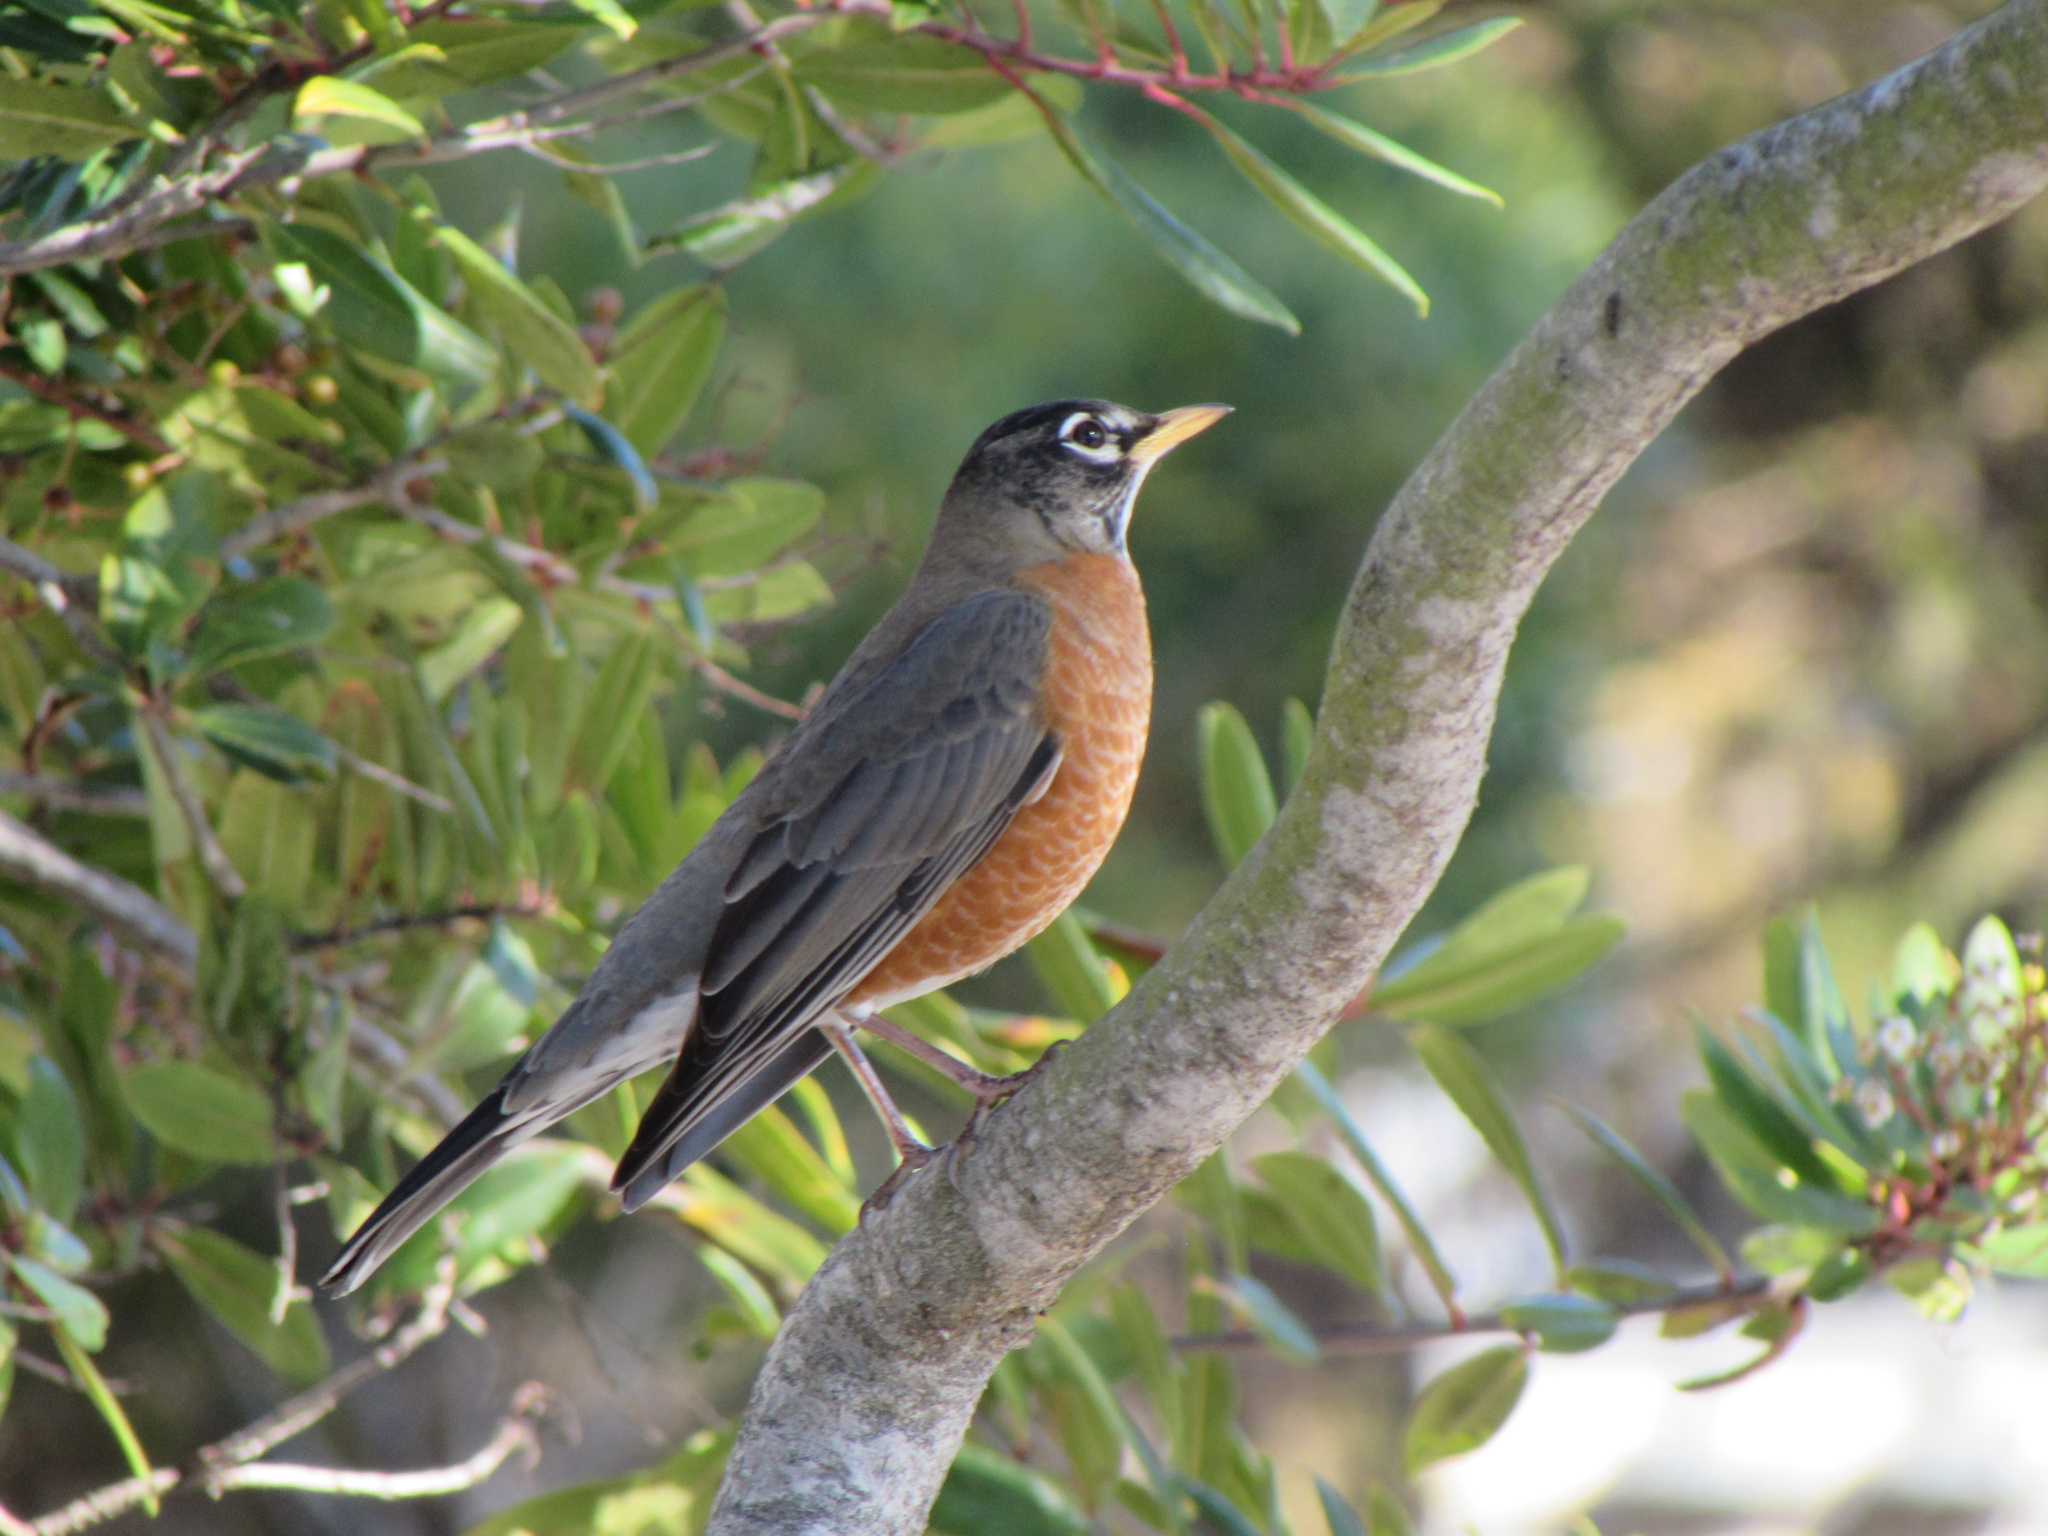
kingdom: Animalia
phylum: Chordata
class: Aves
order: Passeriformes
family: Turdidae
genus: Turdus
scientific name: Turdus migratorius
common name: American robin
